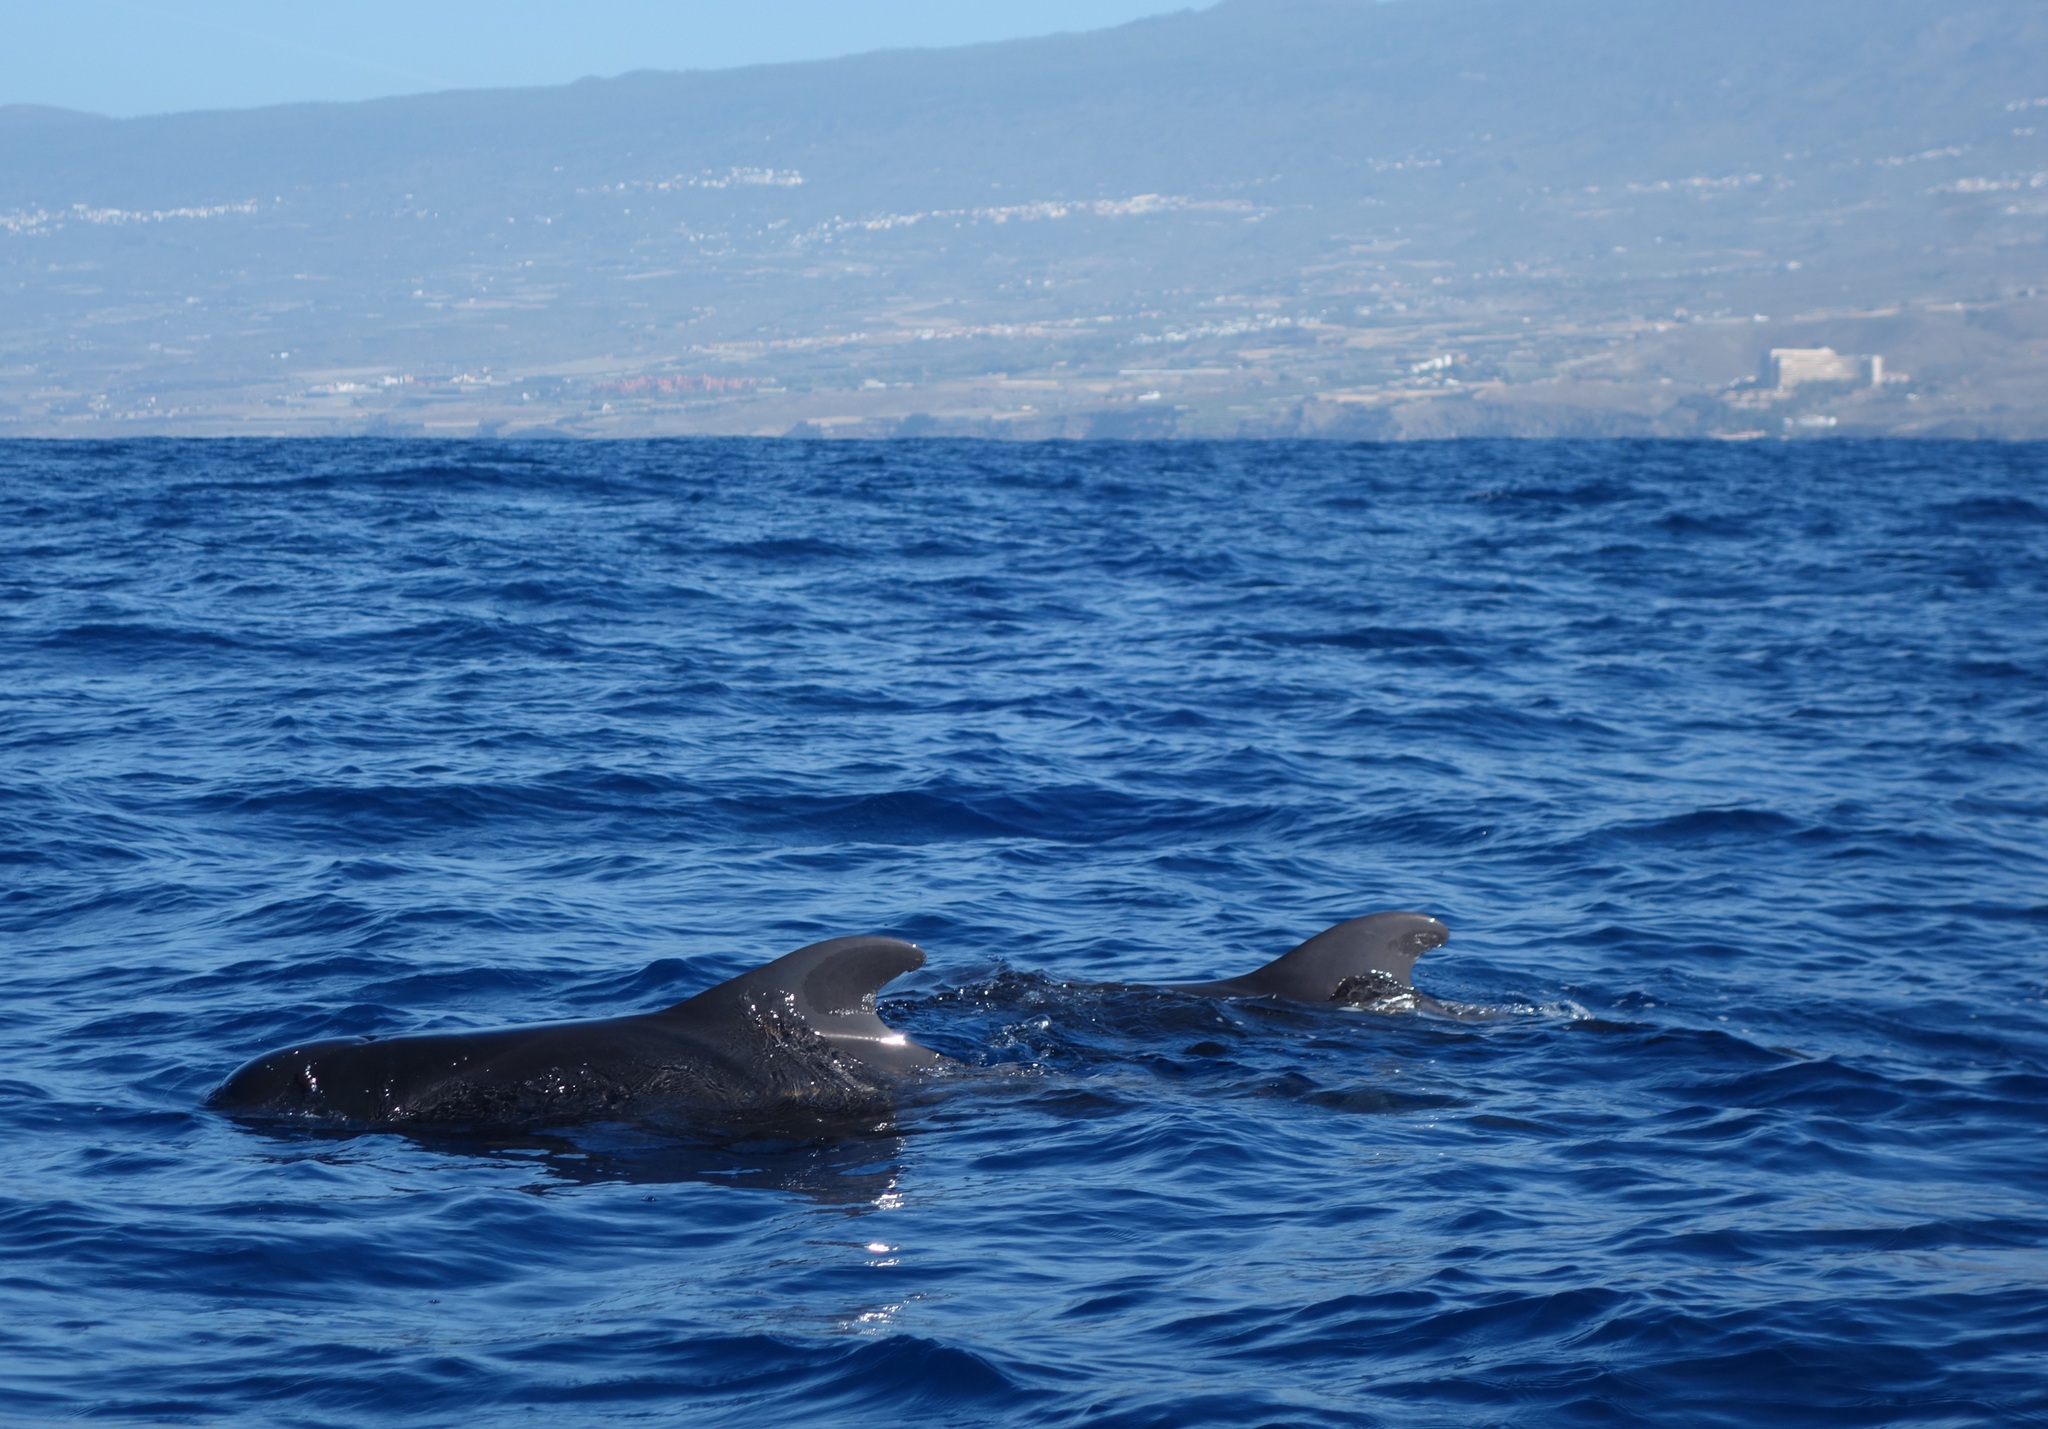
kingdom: Animalia
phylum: Chordata
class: Mammalia
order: Cetacea
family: Delphinidae
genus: Globicephala
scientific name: Globicephala macrorhynchus
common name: Short-finned pilot whale
